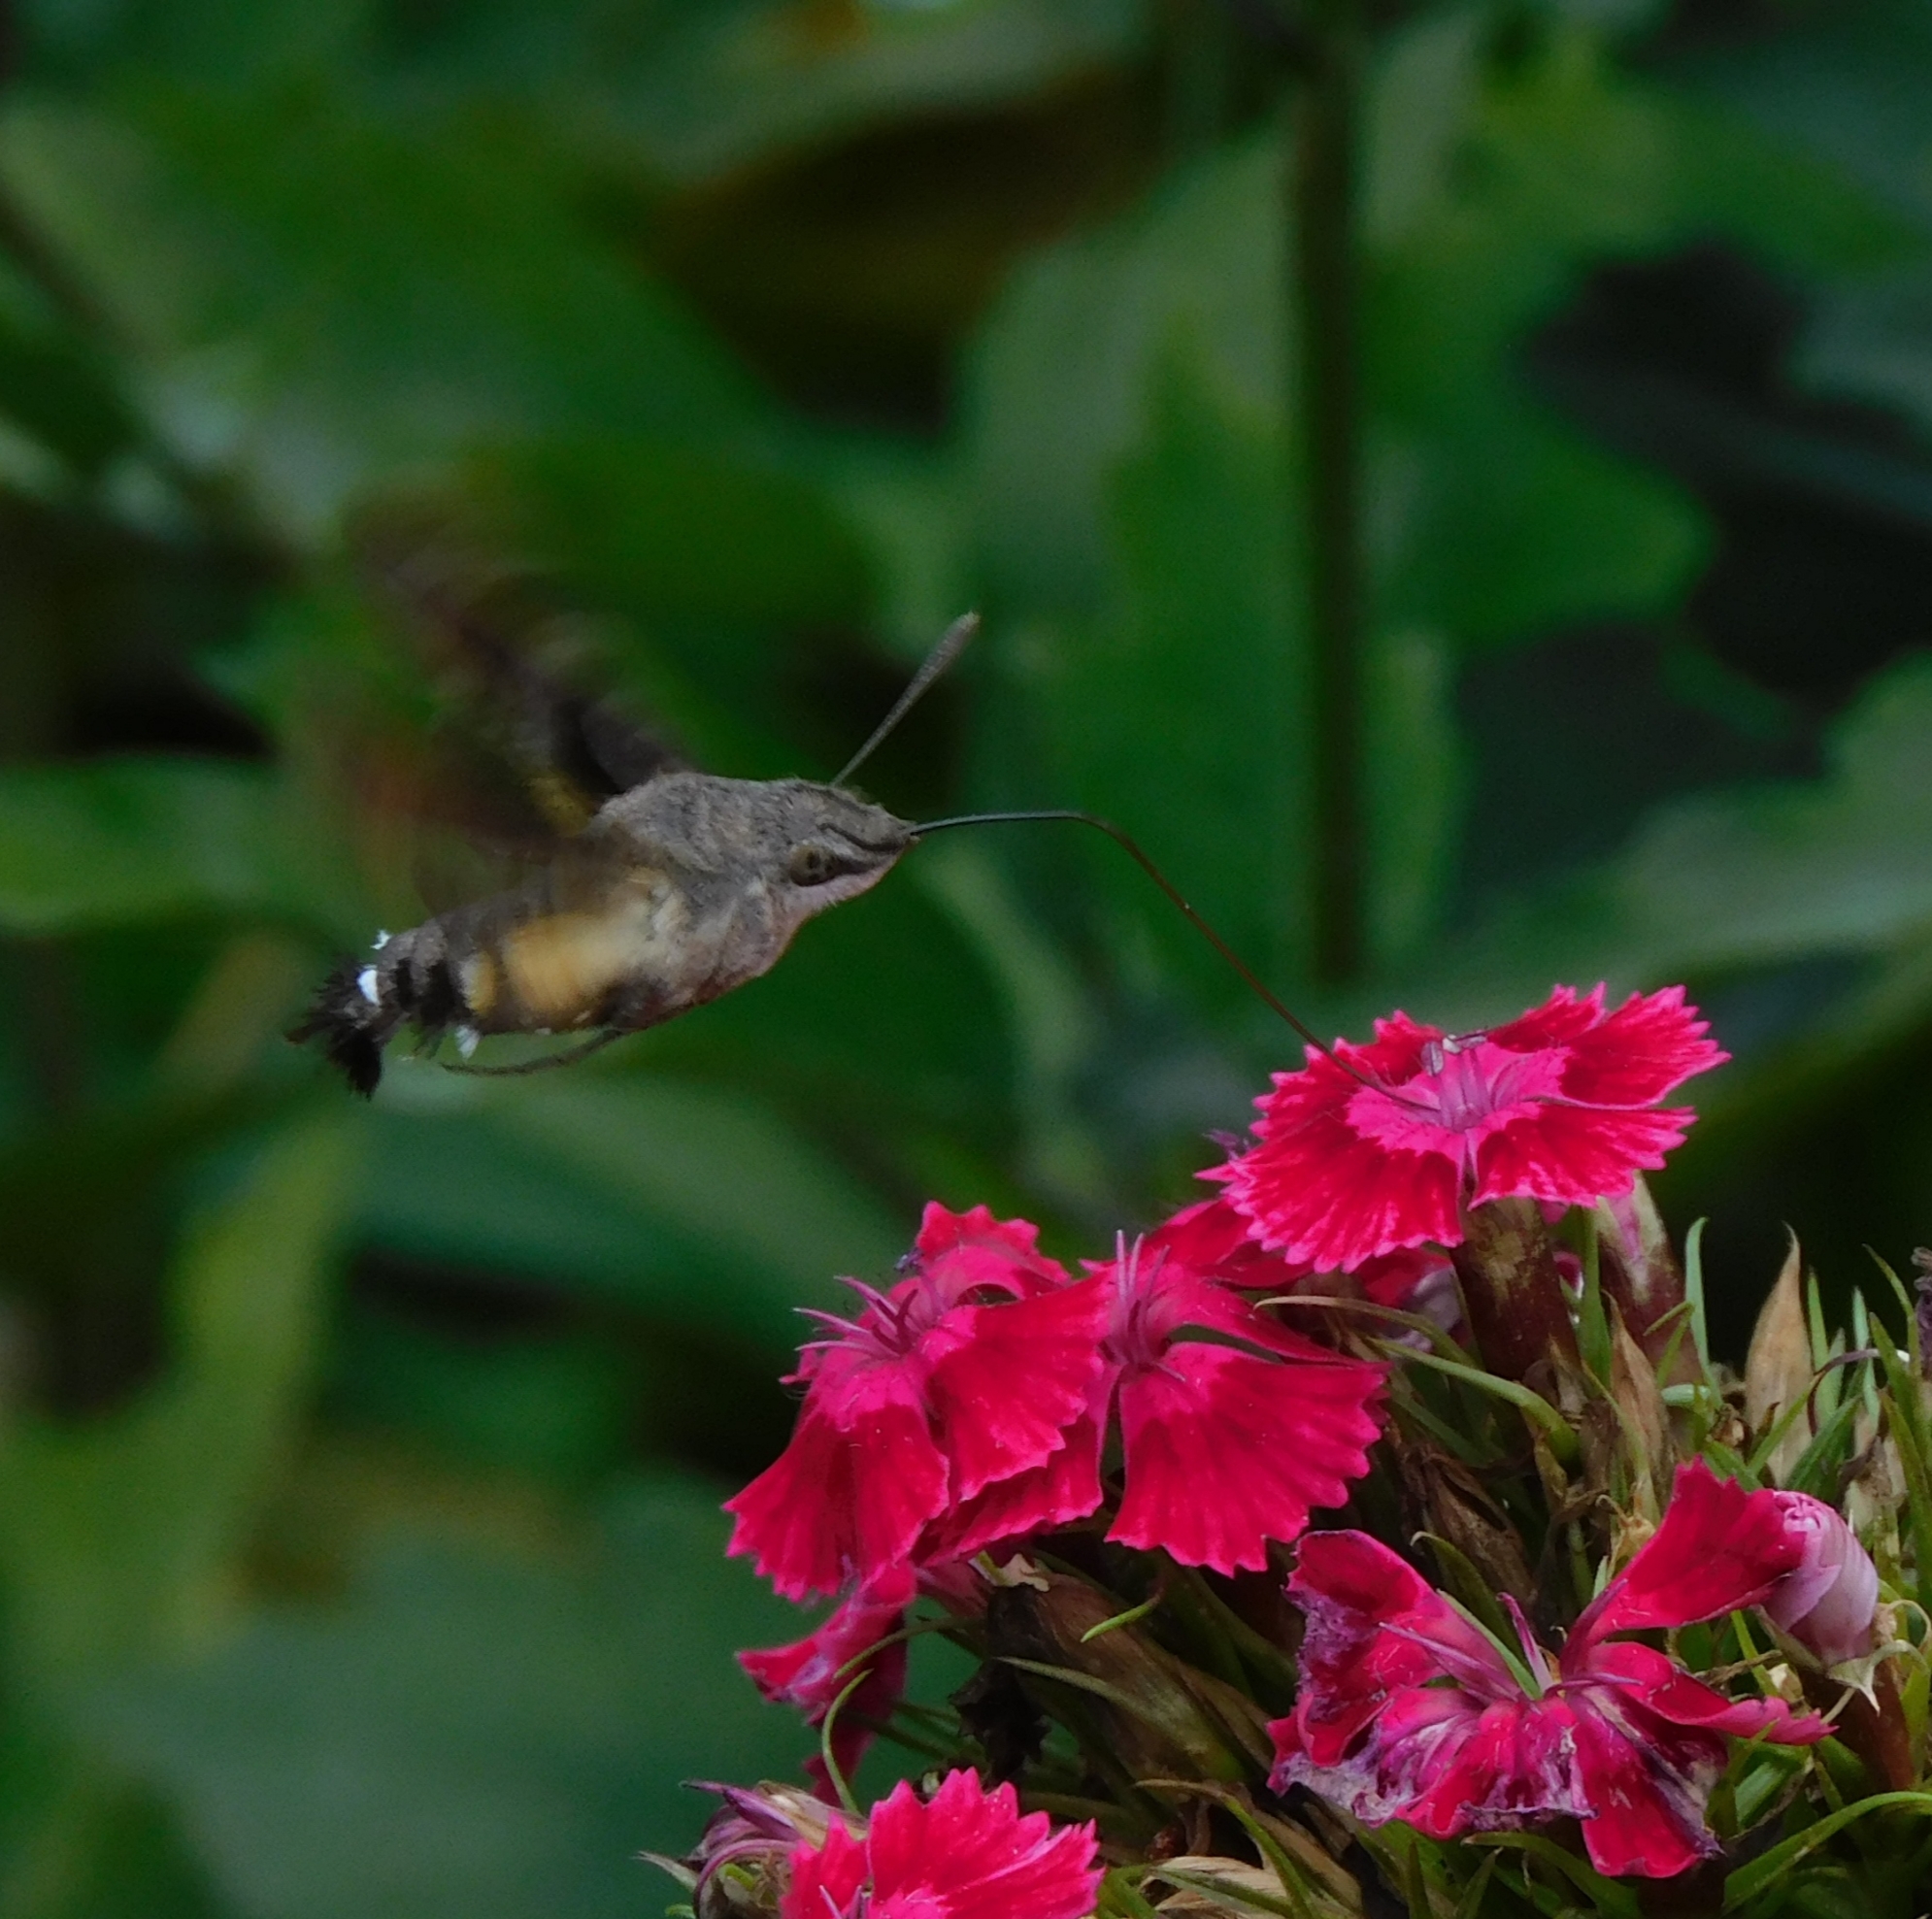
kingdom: Animalia
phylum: Arthropoda
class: Insecta
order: Lepidoptera
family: Sphingidae
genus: Macroglossum
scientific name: Macroglossum stellatarum
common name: Humming-bird hawk-moth
